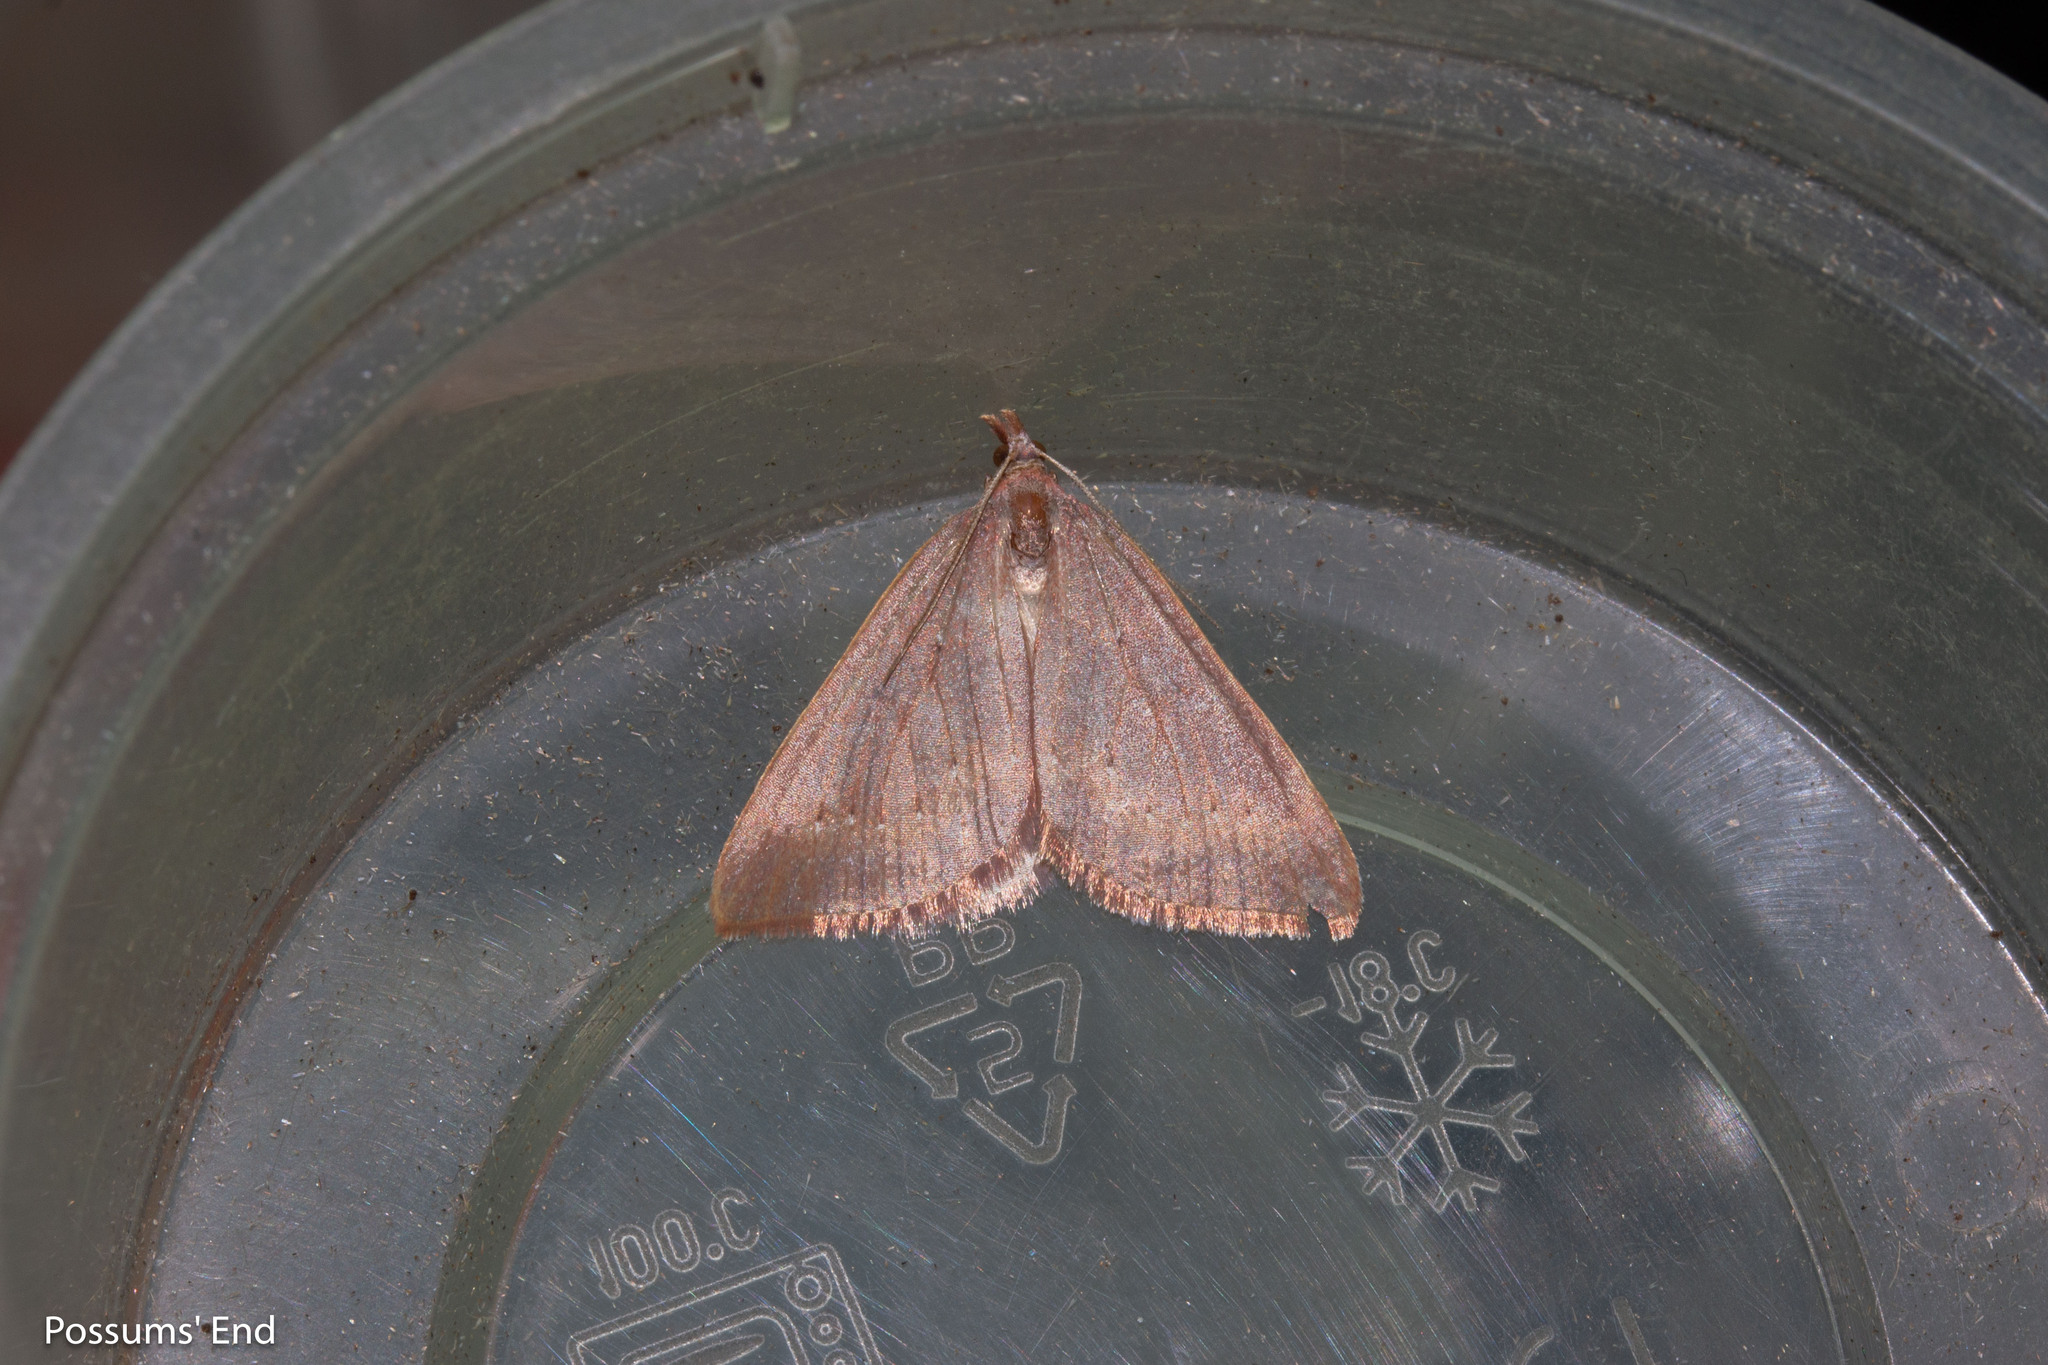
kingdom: Animalia
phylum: Arthropoda
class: Insecta
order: Lepidoptera
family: Geometridae
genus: Xanthorhoe
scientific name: Xanthorhoe occulta
